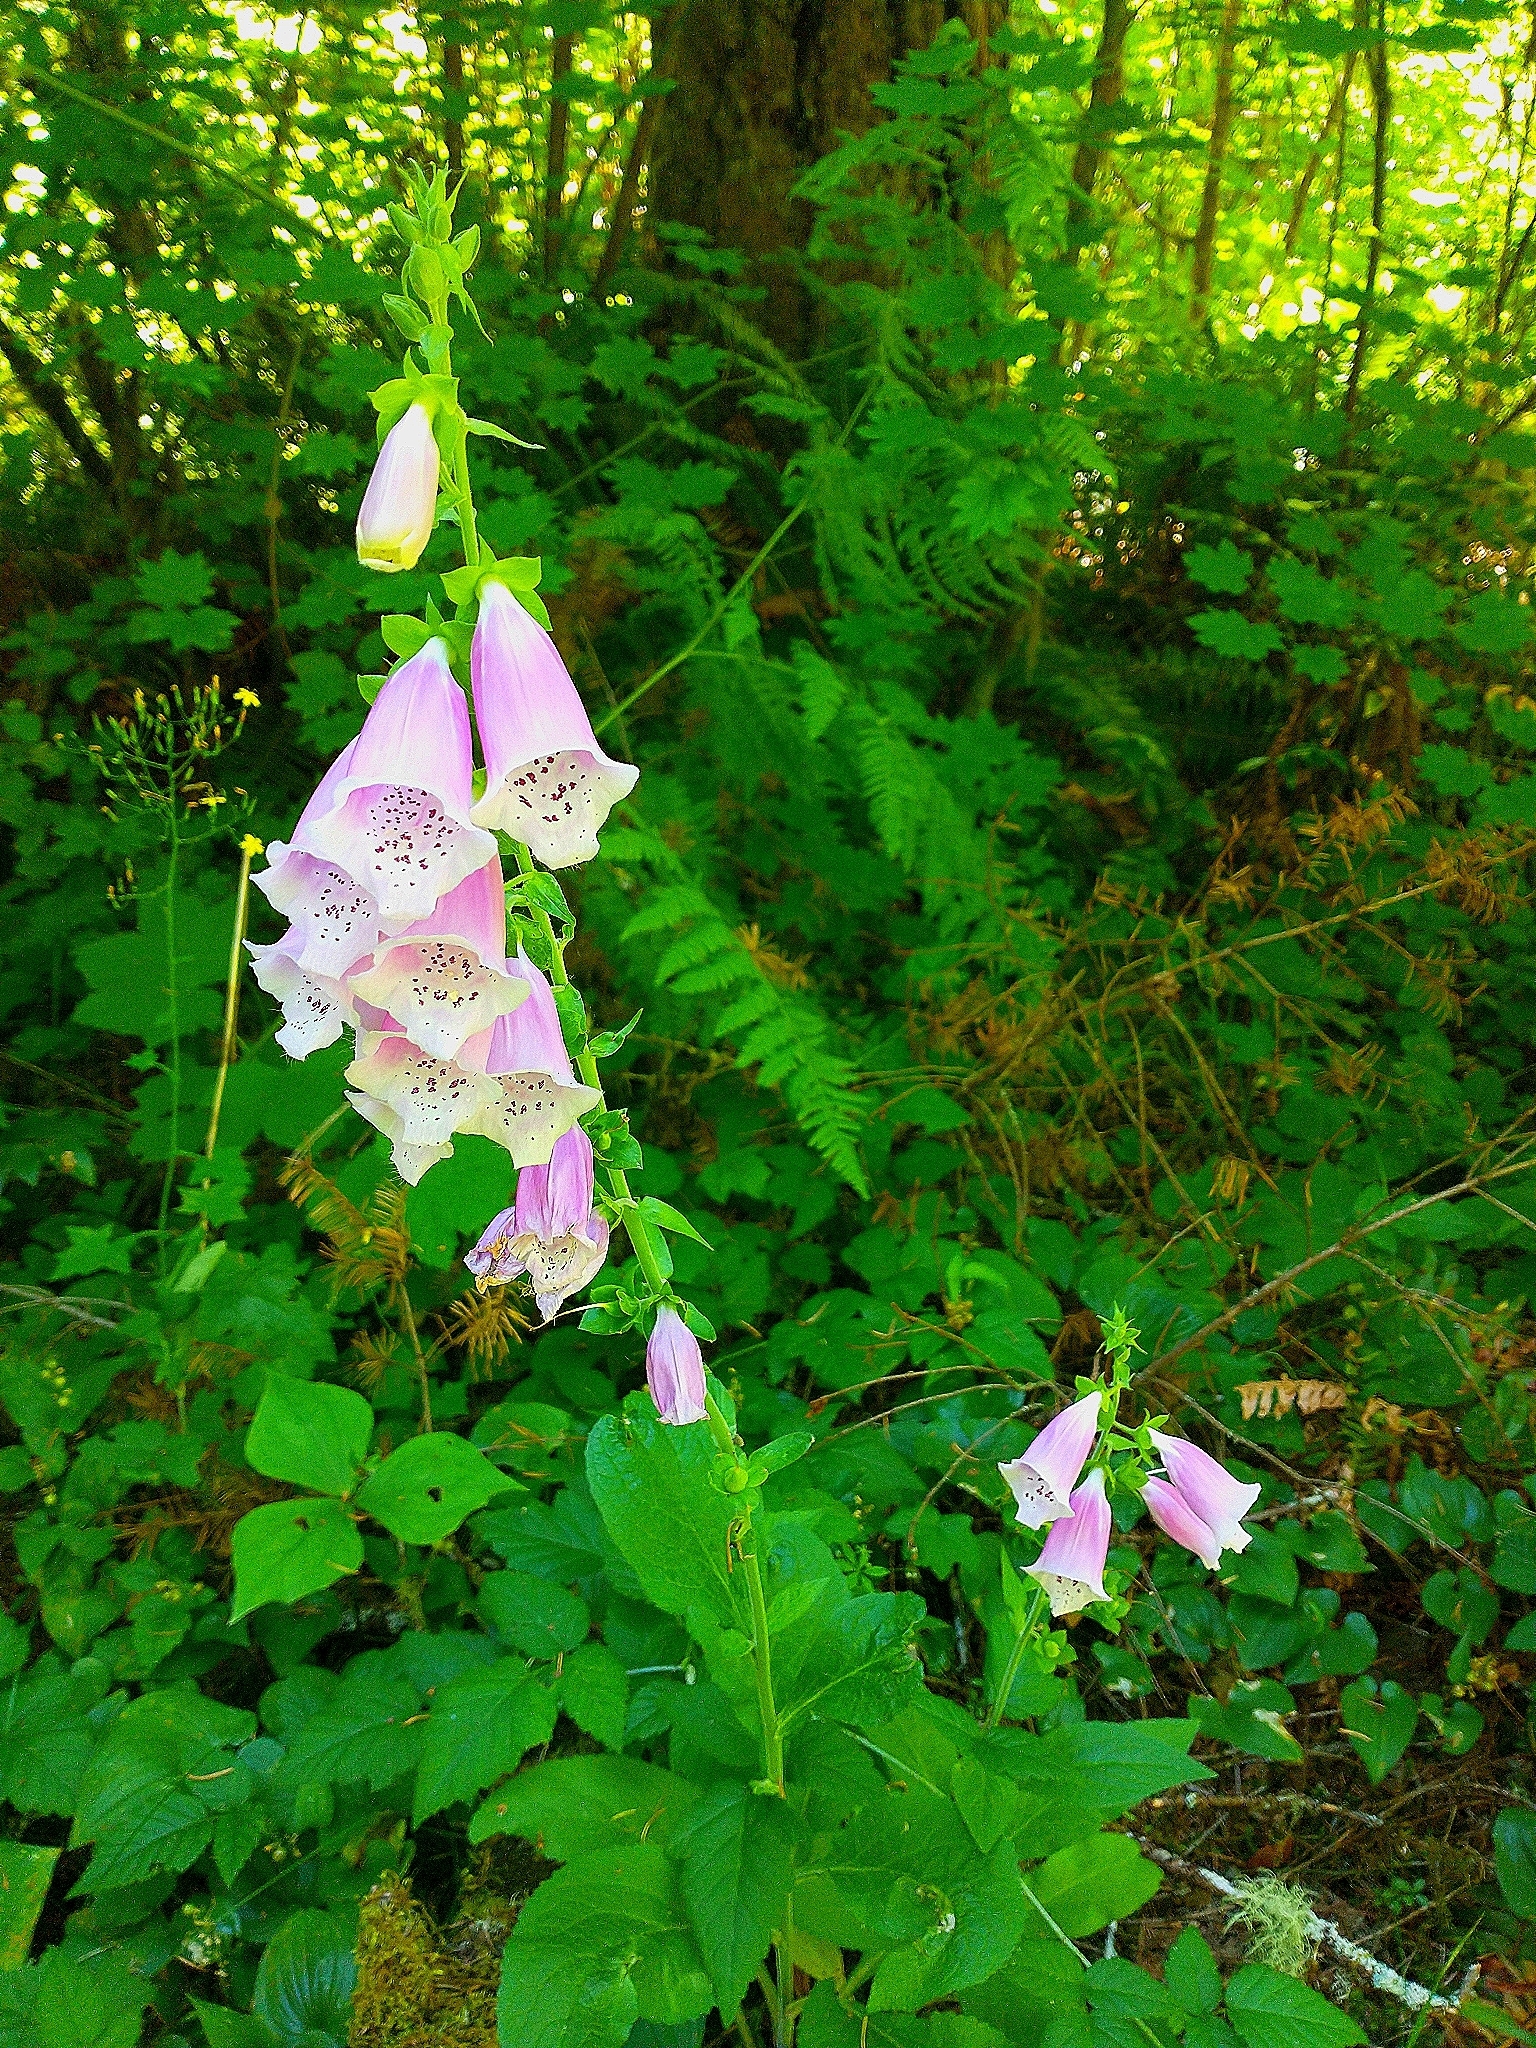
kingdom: Plantae
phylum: Tracheophyta
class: Magnoliopsida
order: Lamiales
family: Plantaginaceae
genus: Digitalis
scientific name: Digitalis purpurea
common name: Foxglove
